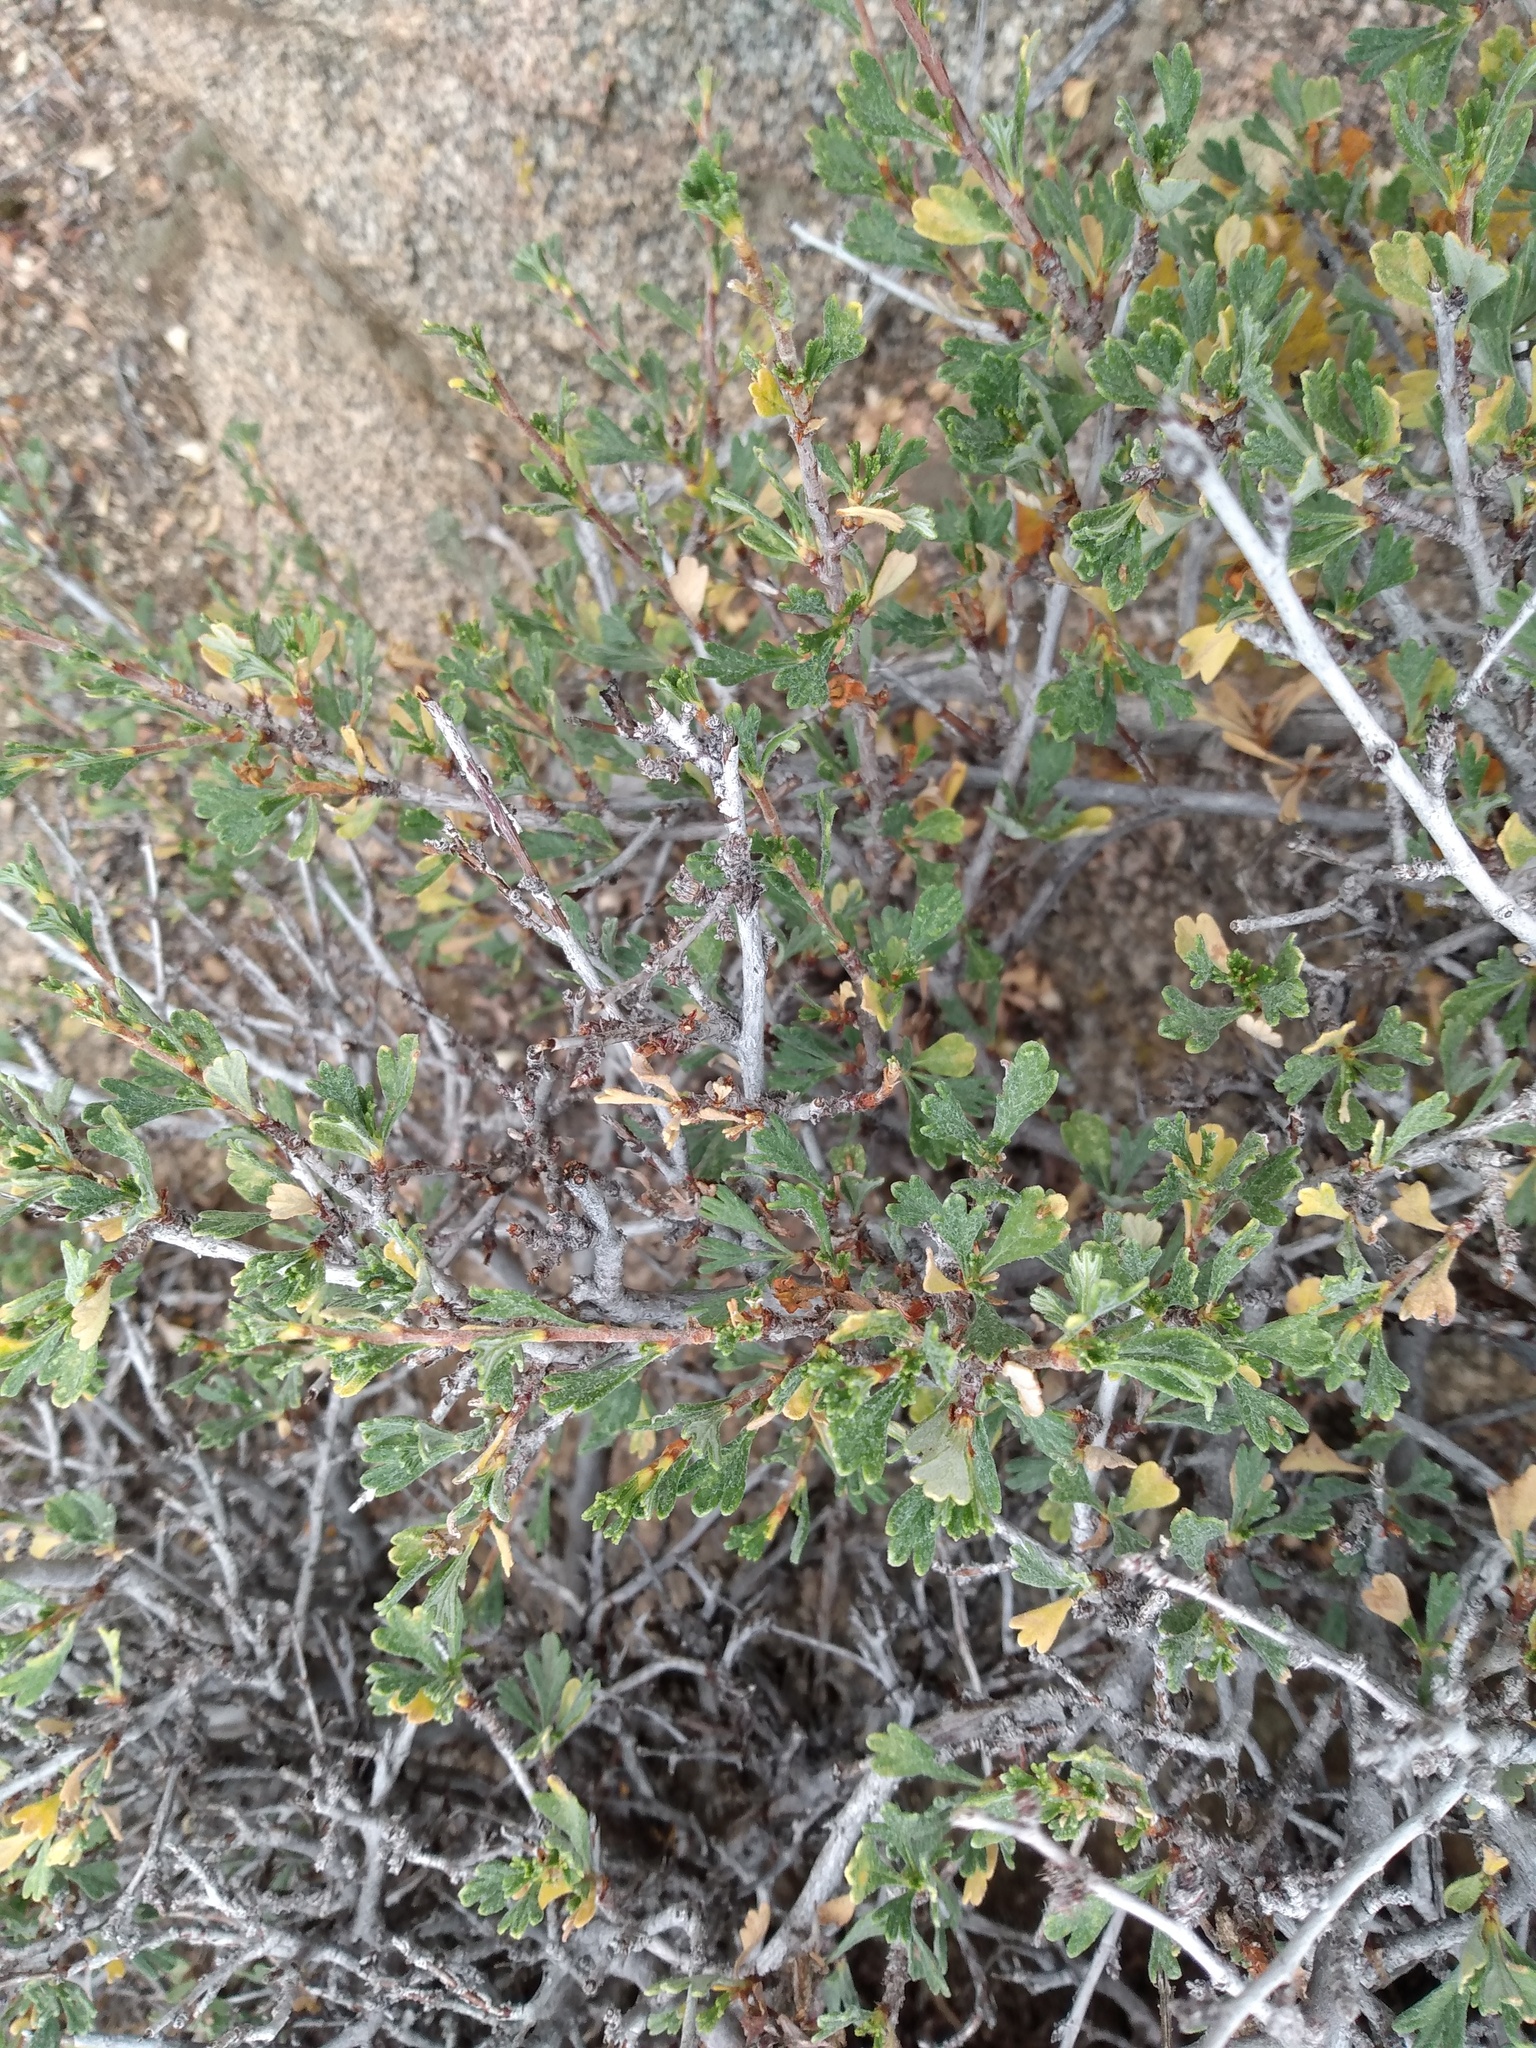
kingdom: Plantae
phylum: Tracheophyta
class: Magnoliopsida
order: Rosales
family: Rosaceae
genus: Purshia
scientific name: Purshia tridentata
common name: Antelope bitterbrush
